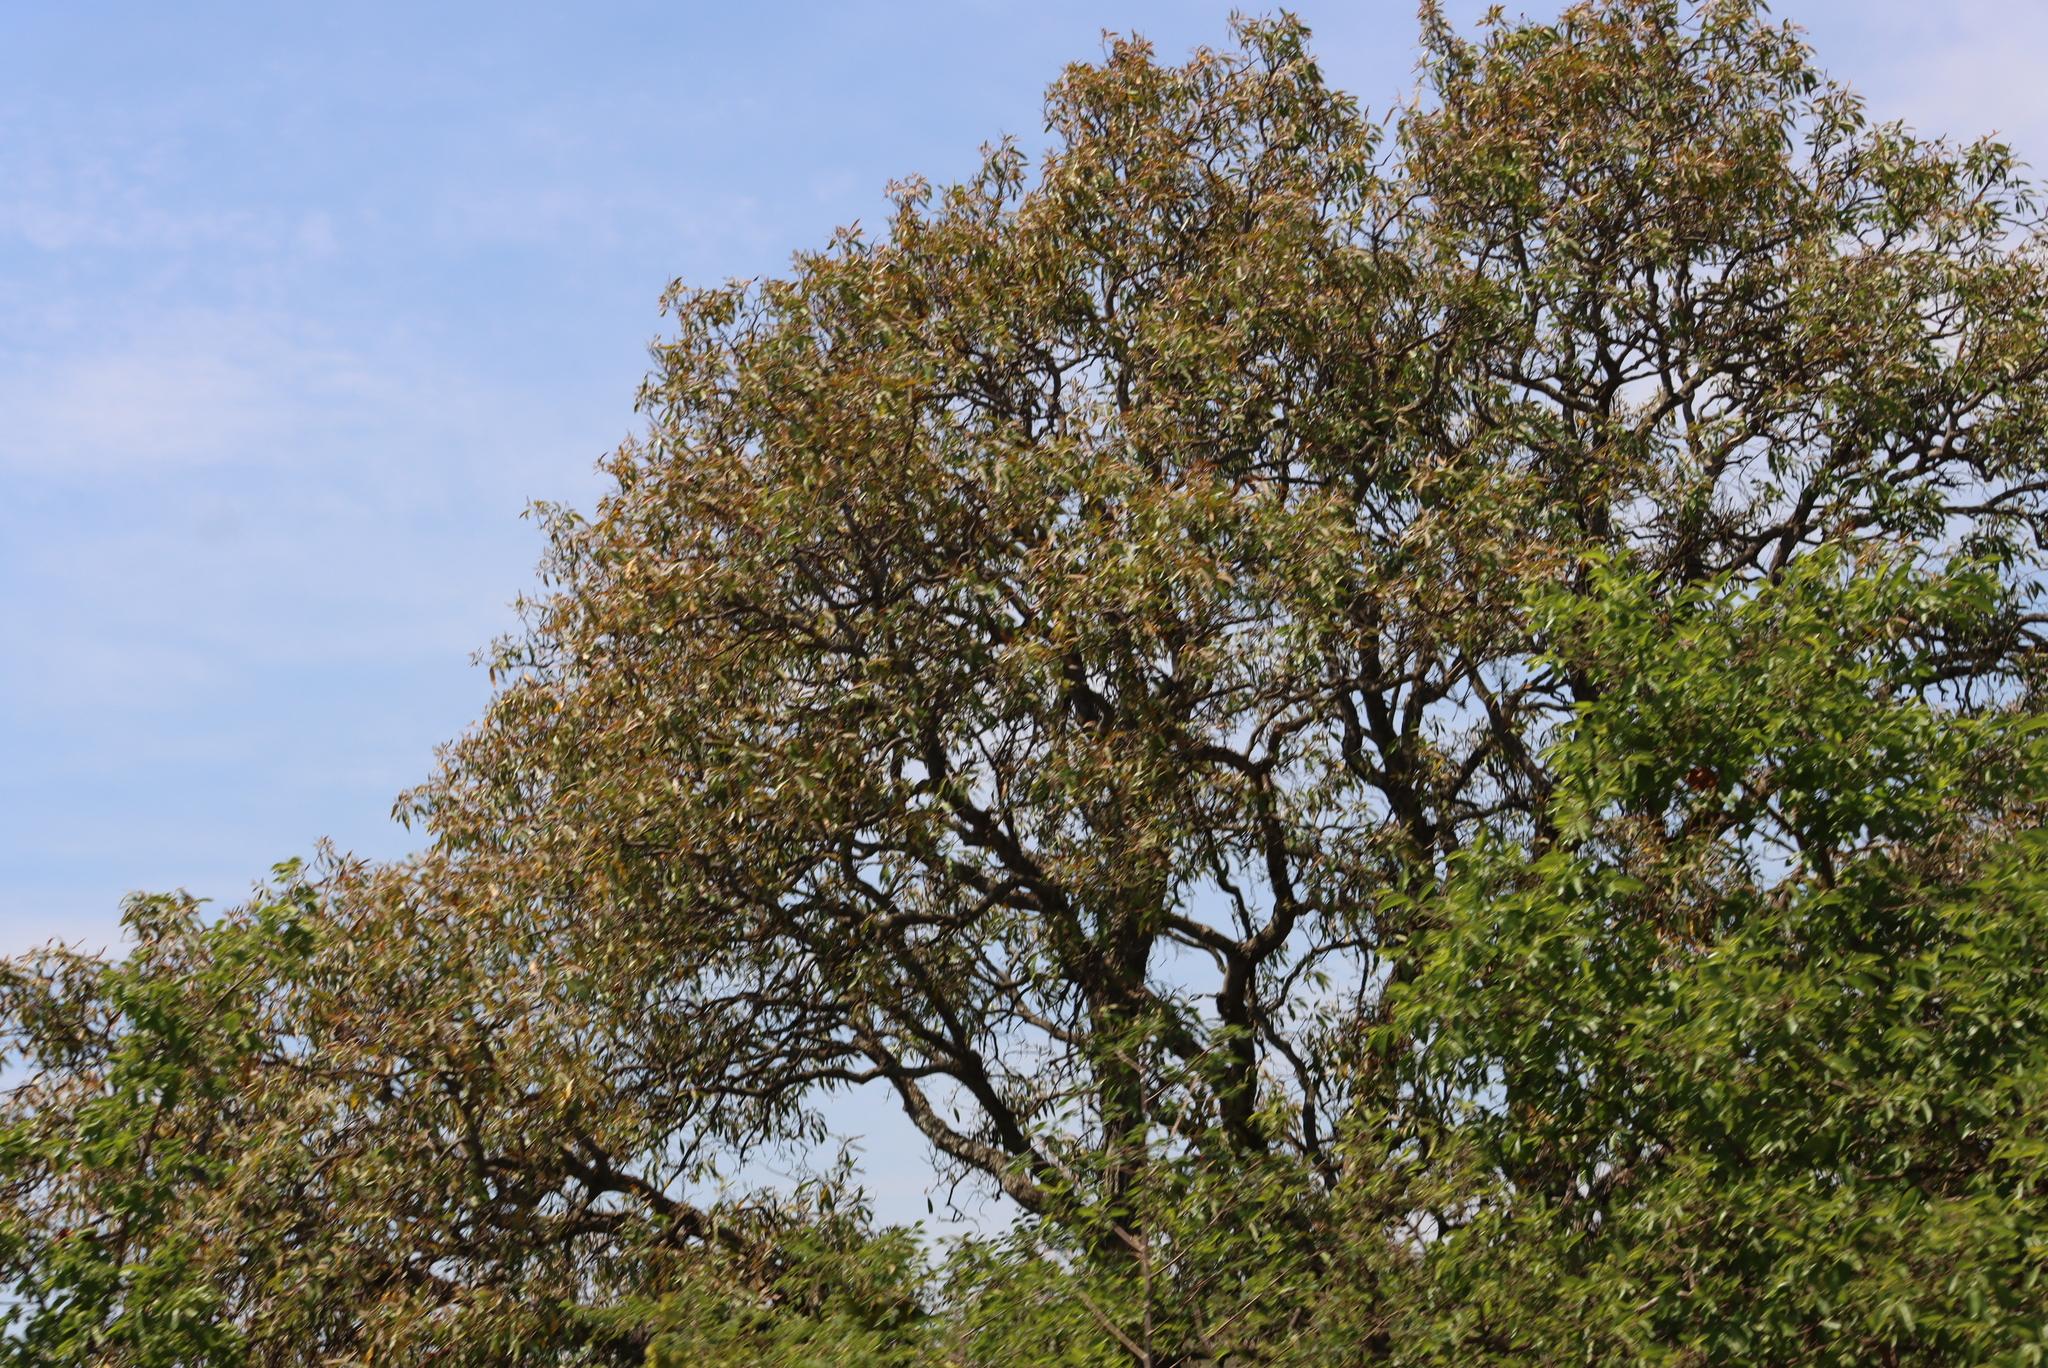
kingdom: Plantae
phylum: Tracheophyta
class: Magnoliopsida
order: Proteales
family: Proteaceae
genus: Faurea
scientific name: Faurea saligna
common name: African bean
